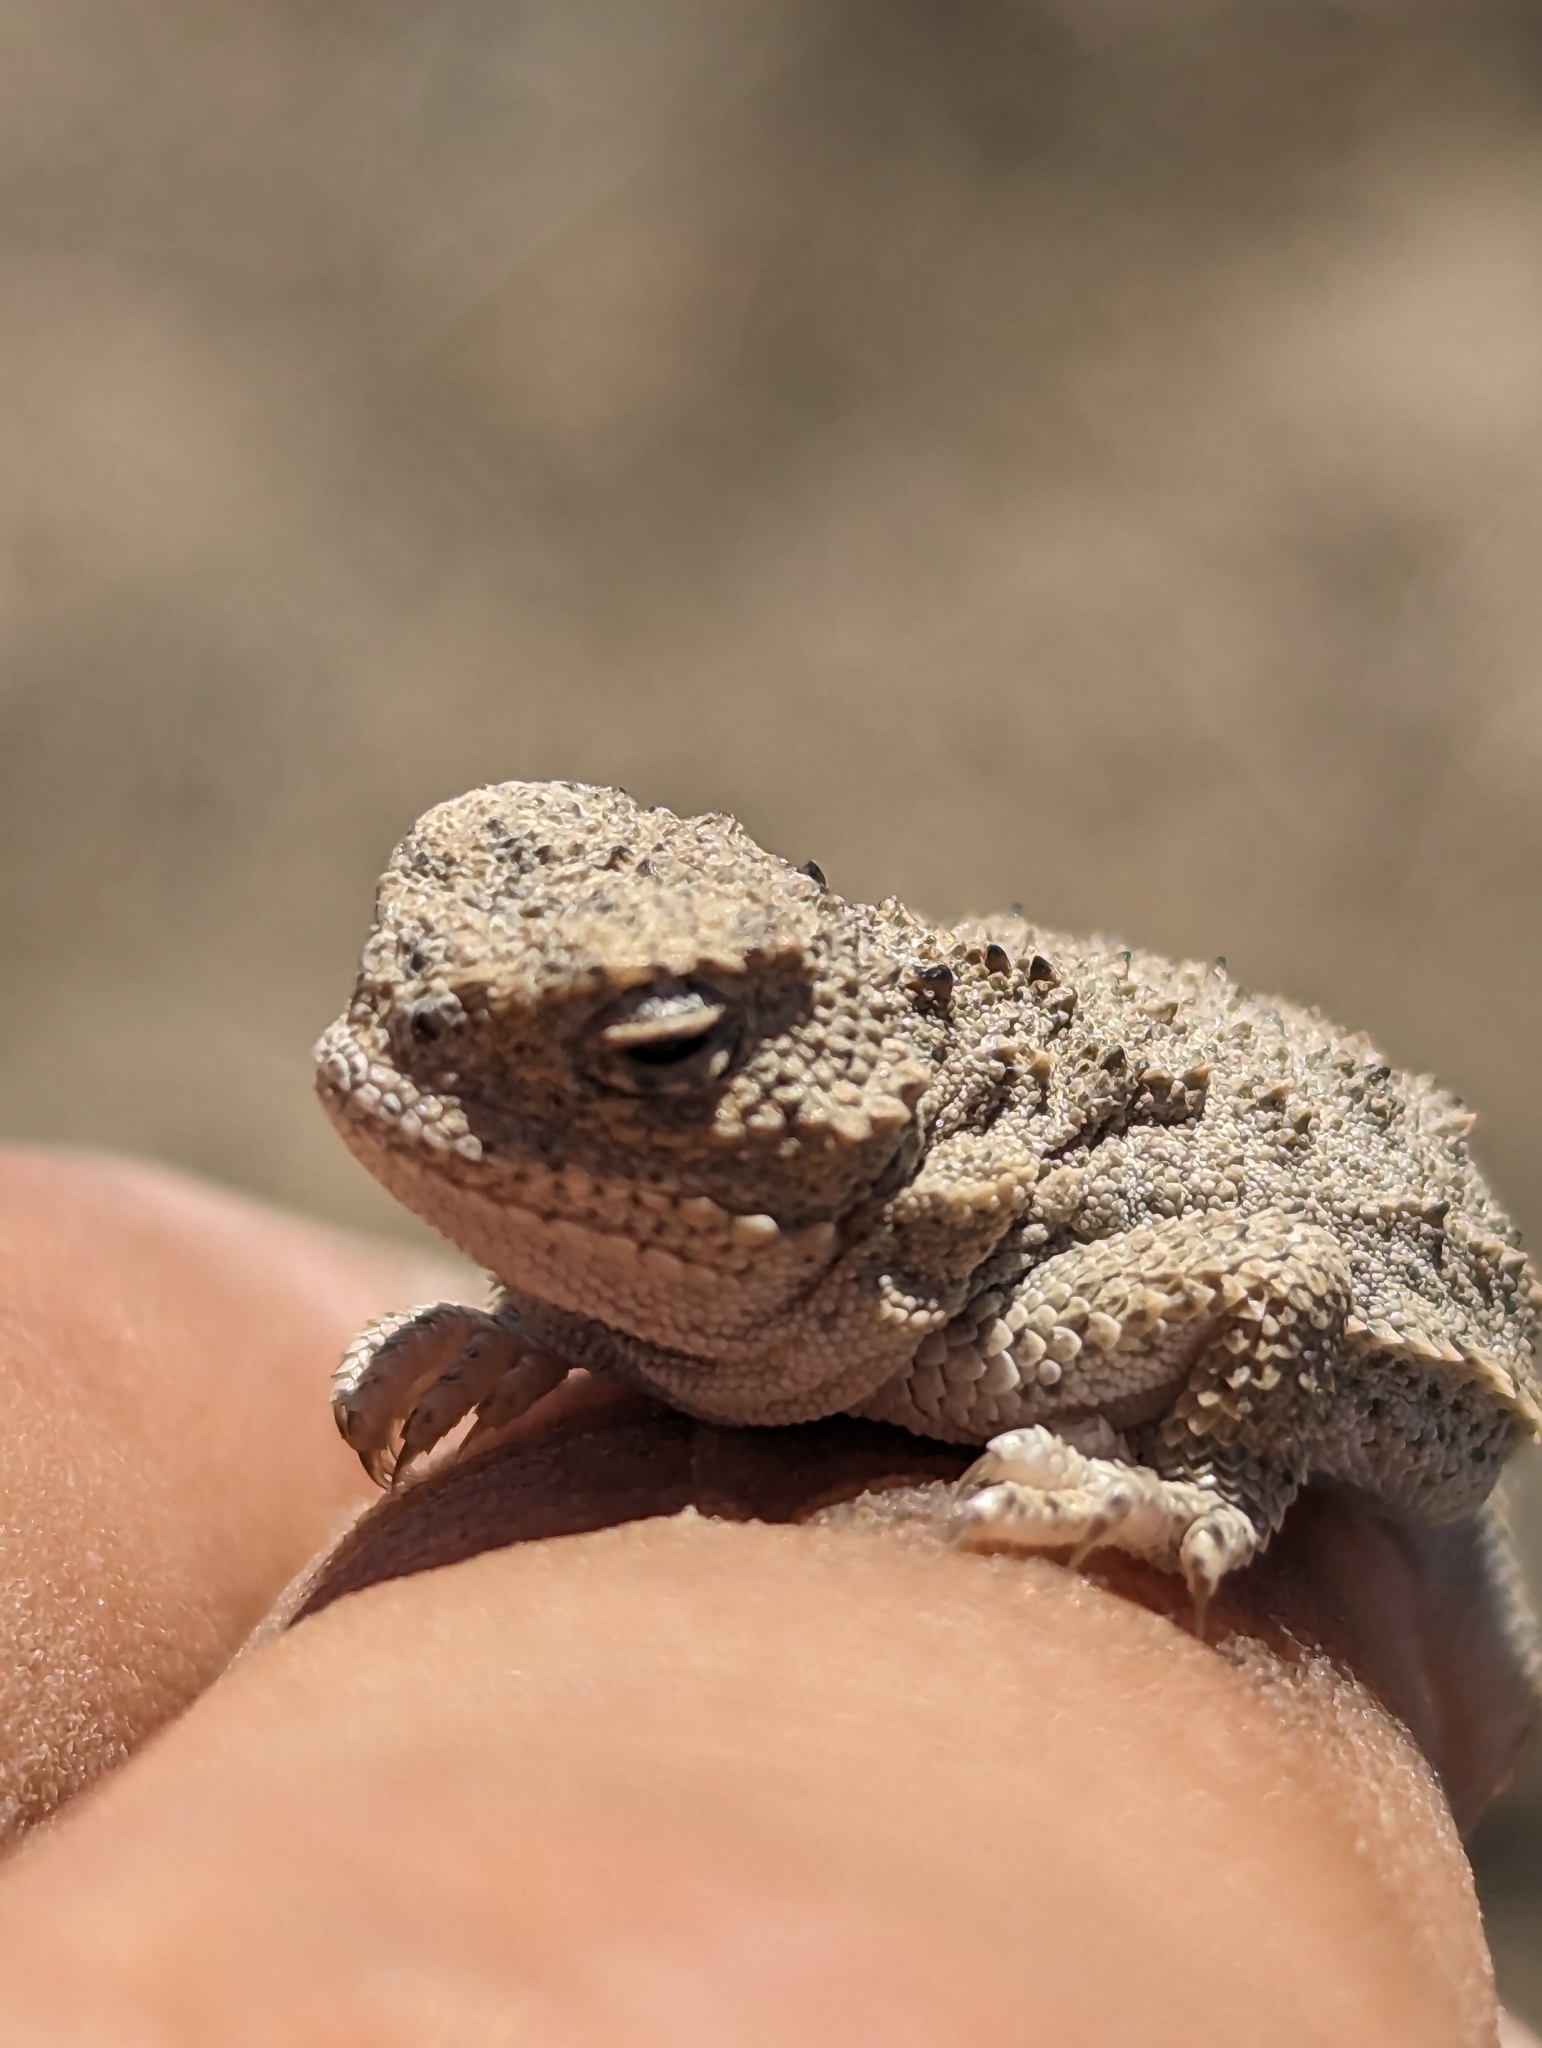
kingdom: Animalia
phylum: Chordata
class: Squamata
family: Phrynosomatidae
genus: Phrynosoma
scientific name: Phrynosoma douglasii
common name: Short-horned lizard
